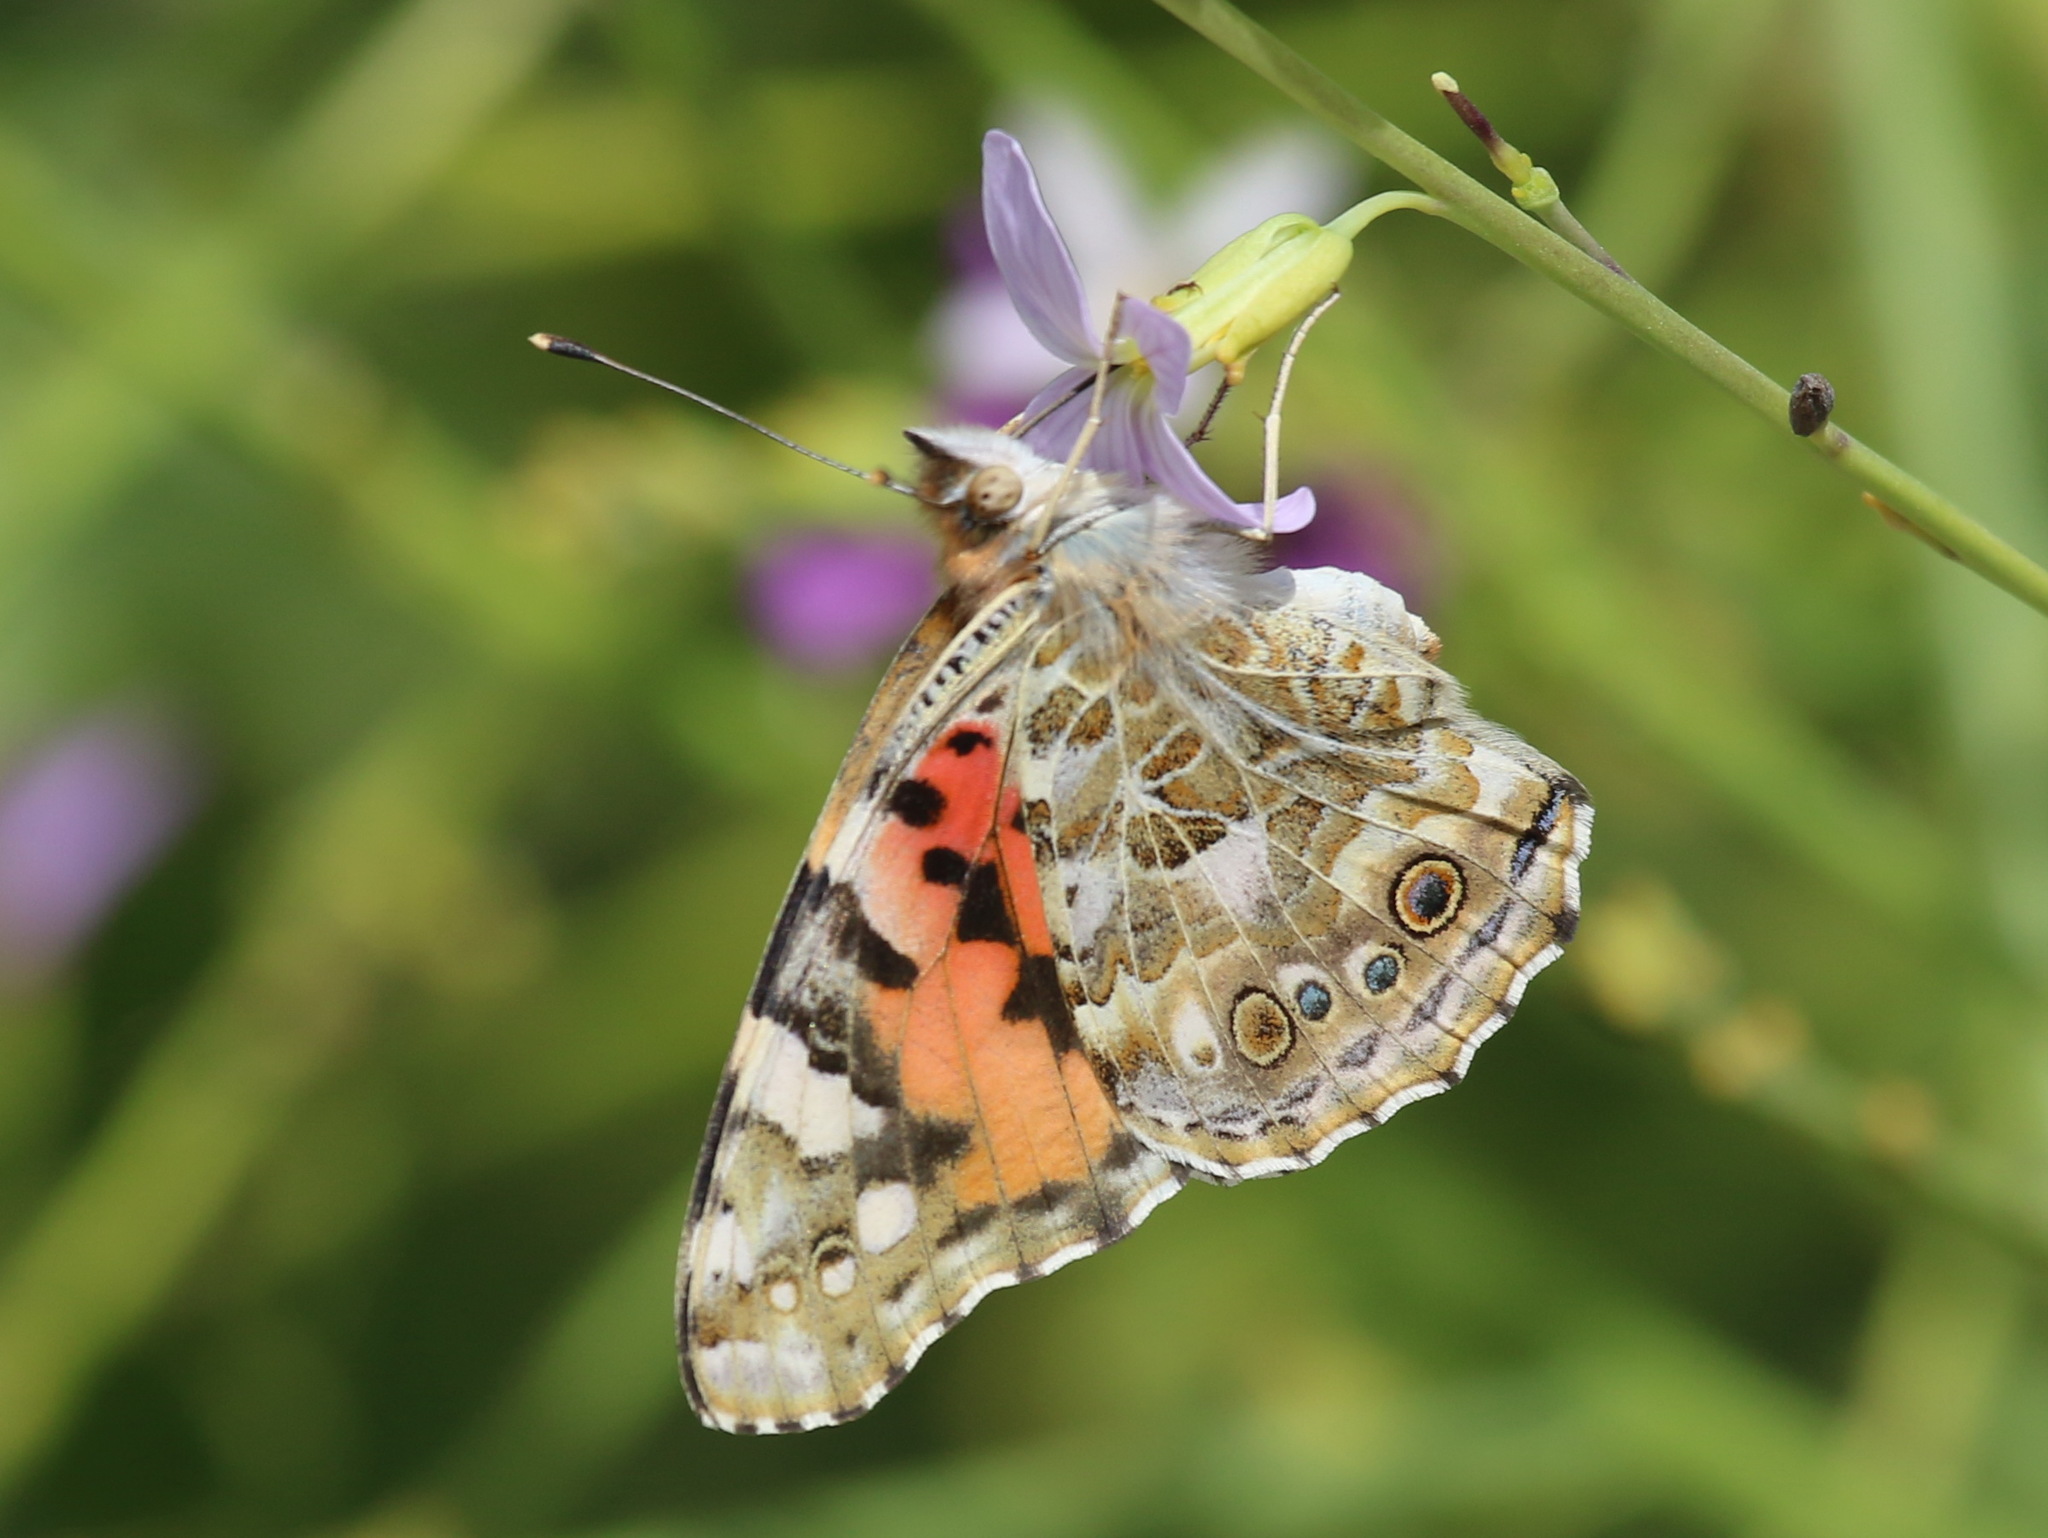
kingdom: Animalia
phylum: Arthropoda
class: Insecta
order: Lepidoptera
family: Nymphalidae
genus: Vanessa
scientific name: Vanessa cardui
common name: Painted lady
